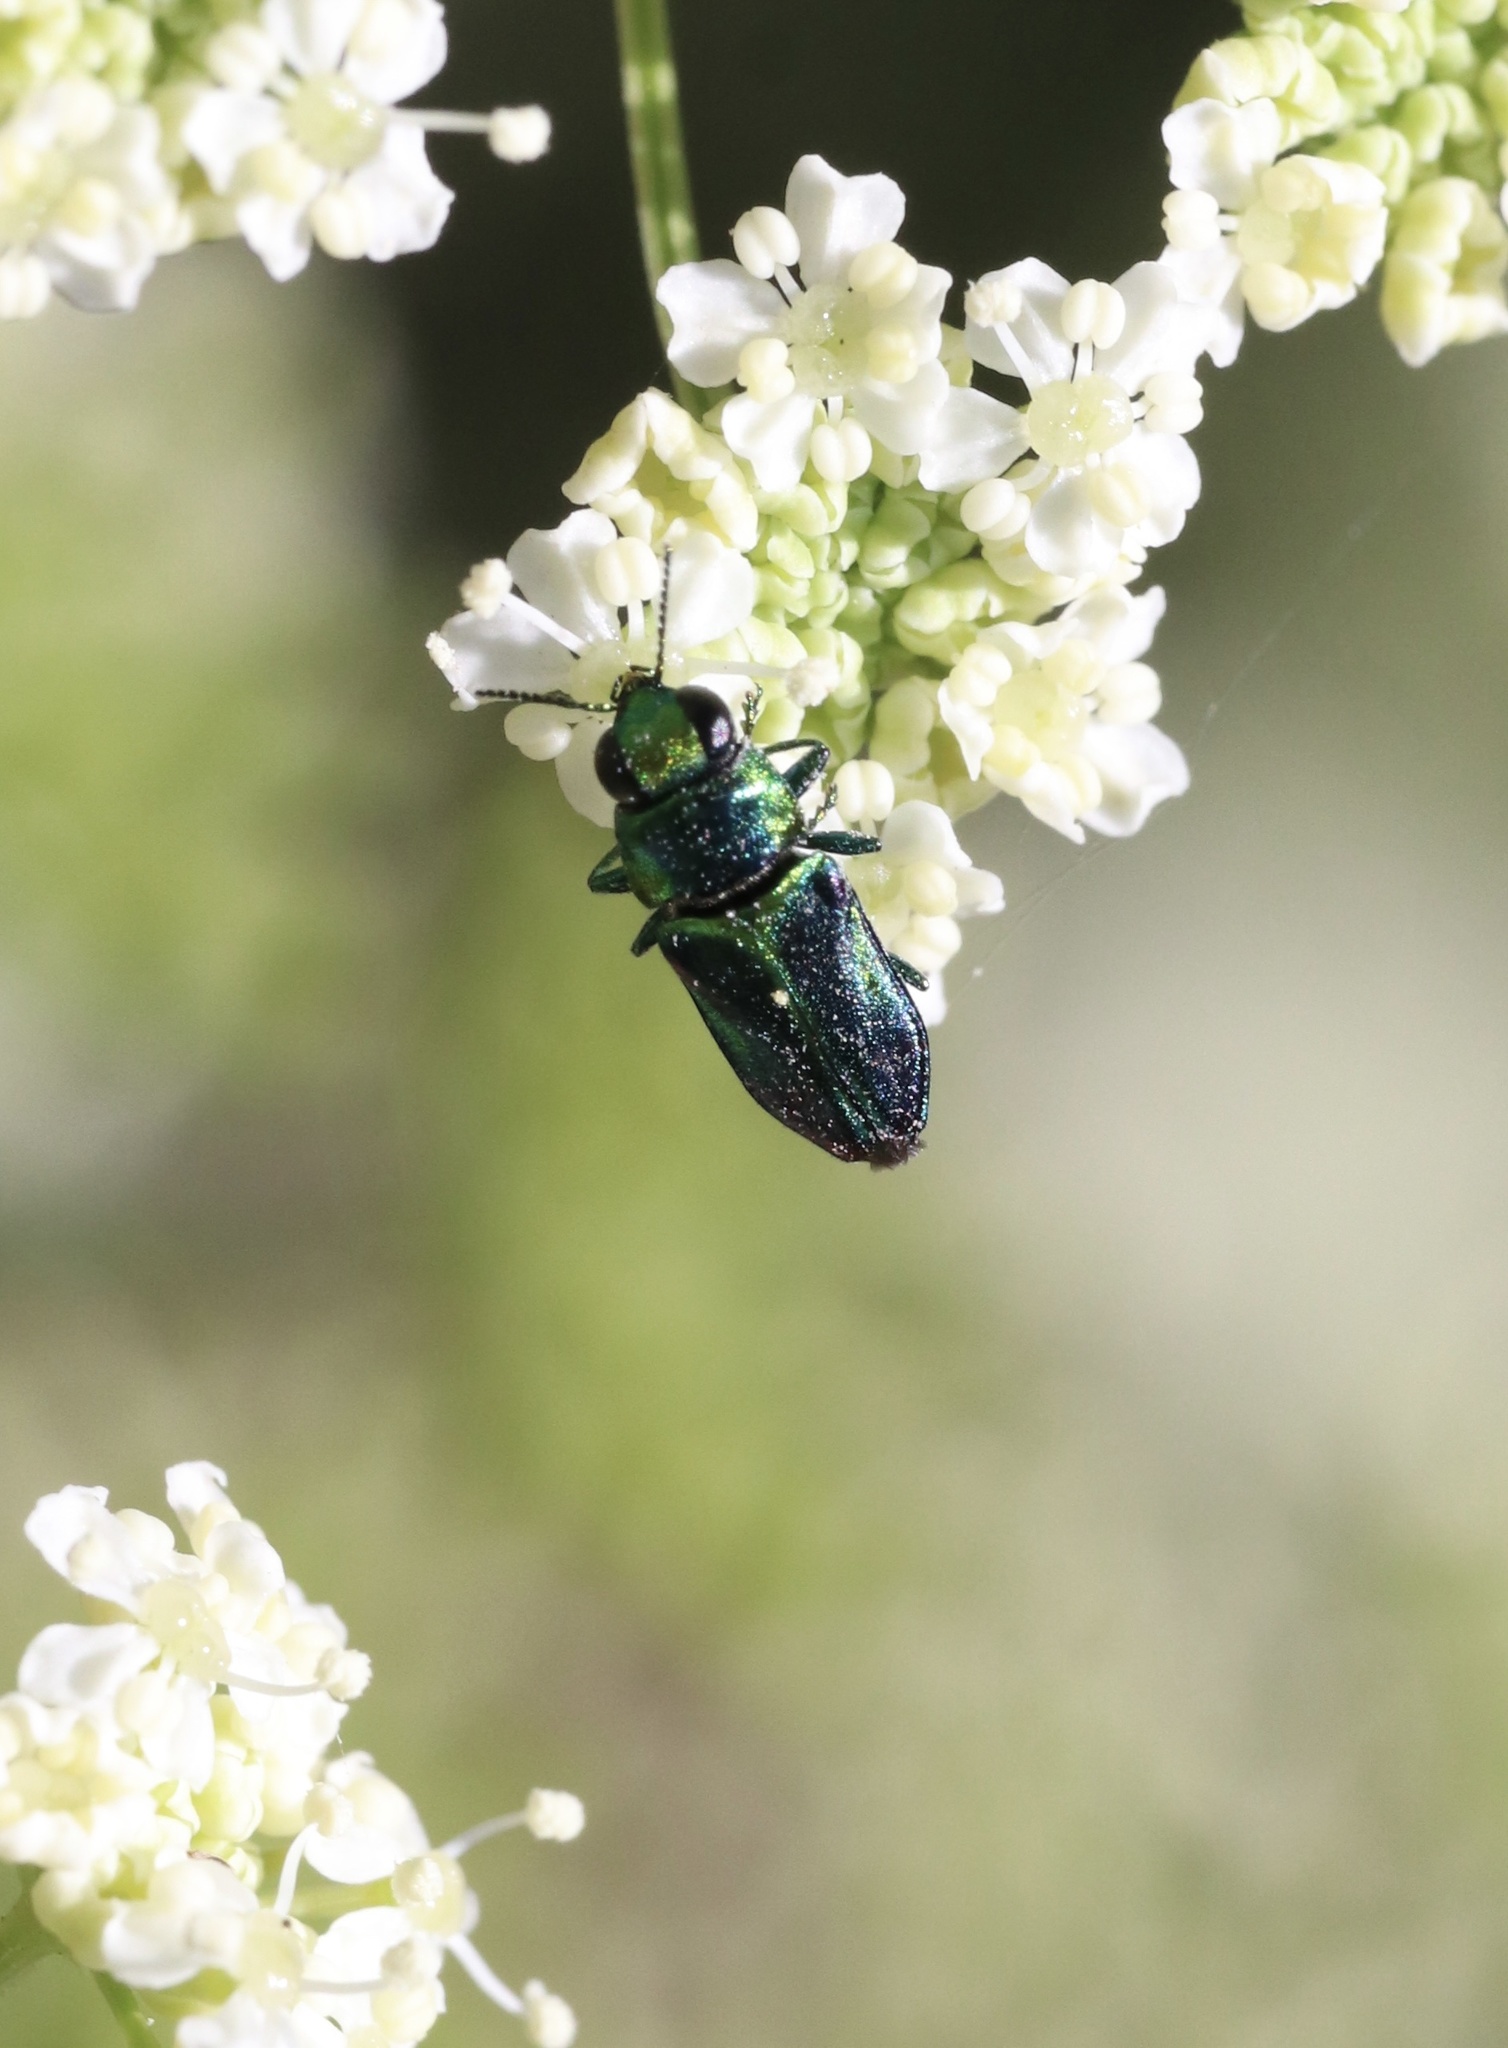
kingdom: Animalia
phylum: Arthropoda
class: Insecta
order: Coleoptera
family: Buprestidae
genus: Bilyaxia
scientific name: Bilyaxia concinna
